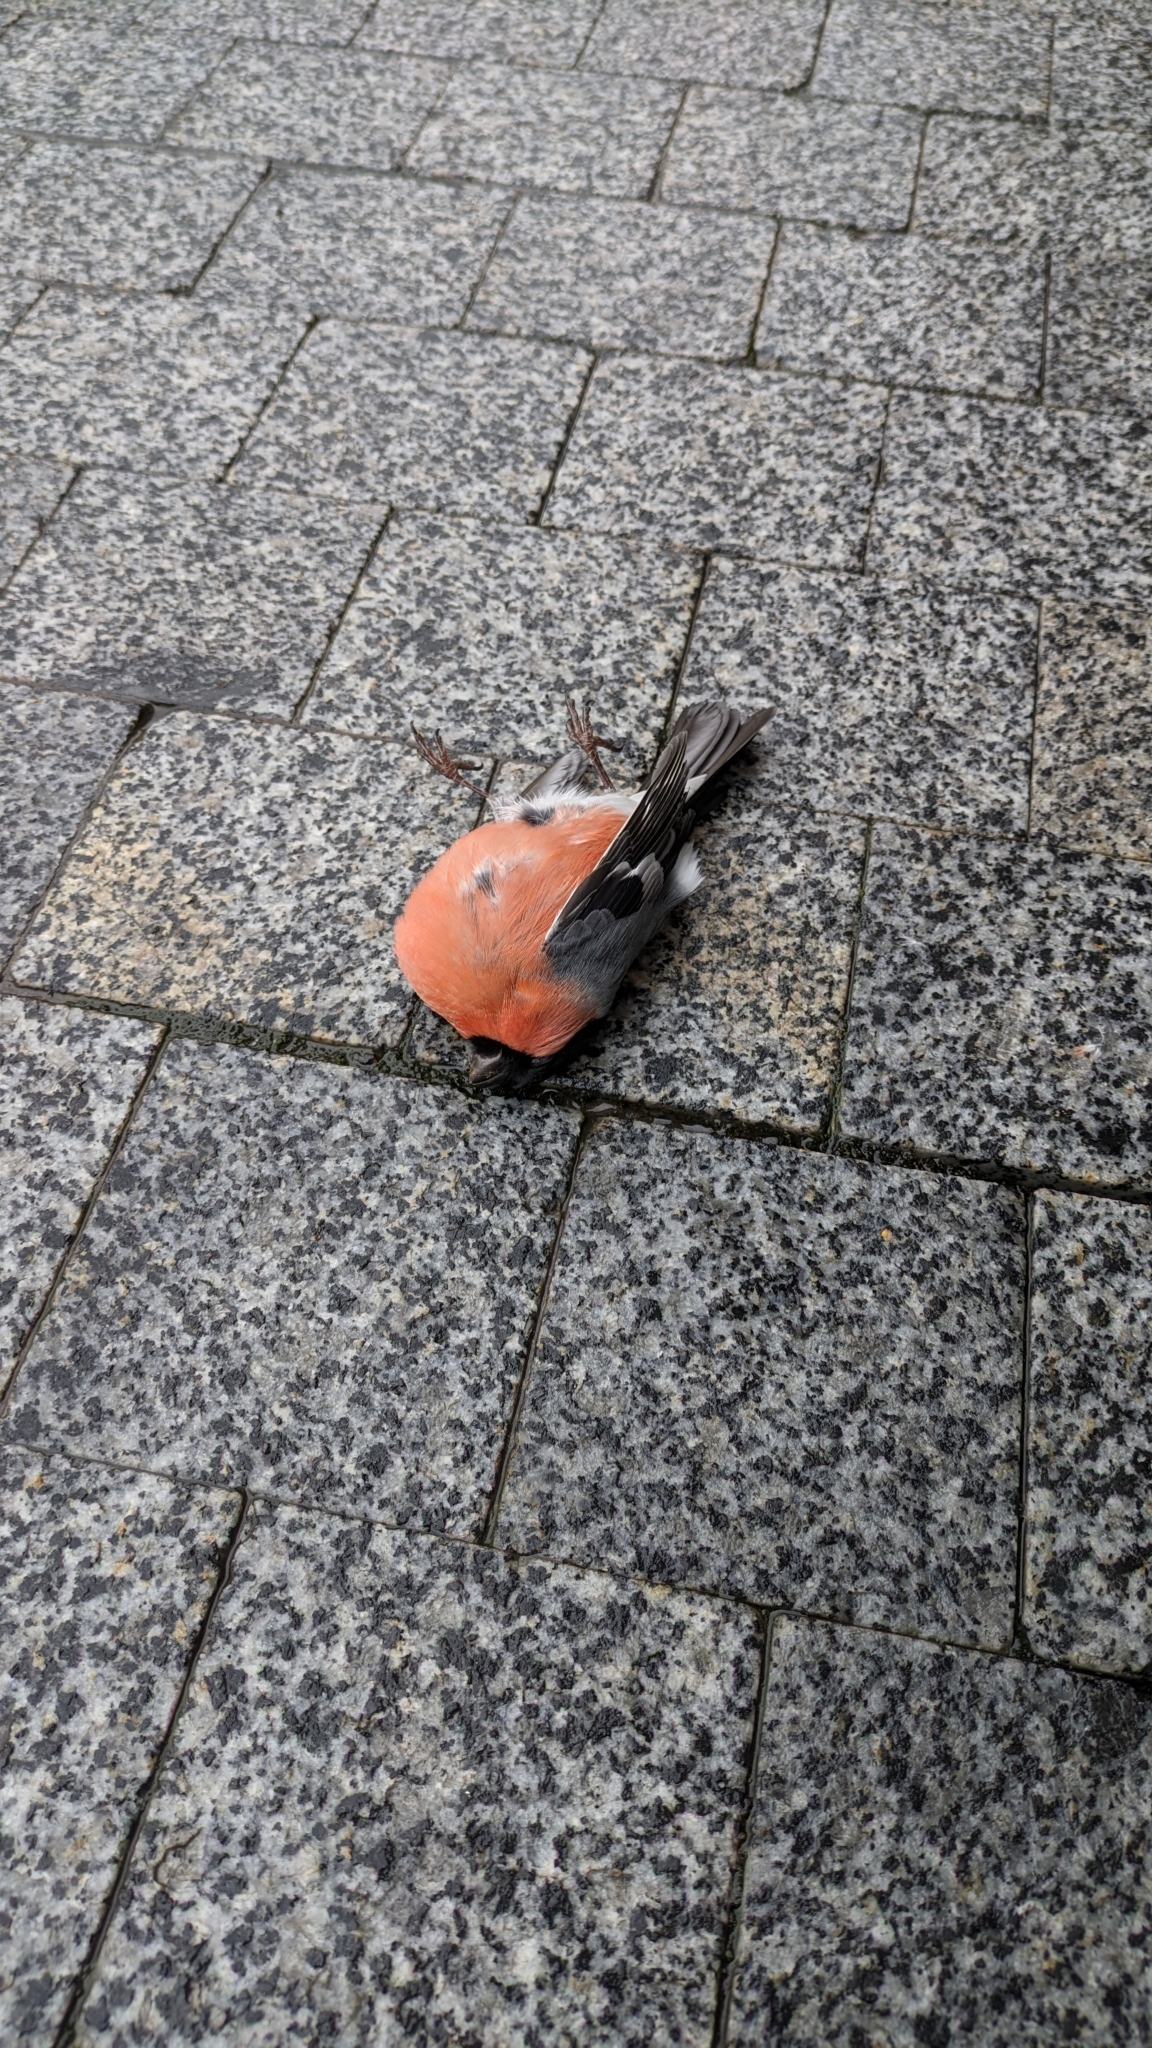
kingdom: Animalia
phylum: Chordata
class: Aves
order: Passeriformes
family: Fringillidae
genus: Pyrrhula
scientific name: Pyrrhula pyrrhula
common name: Eurasian bullfinch
